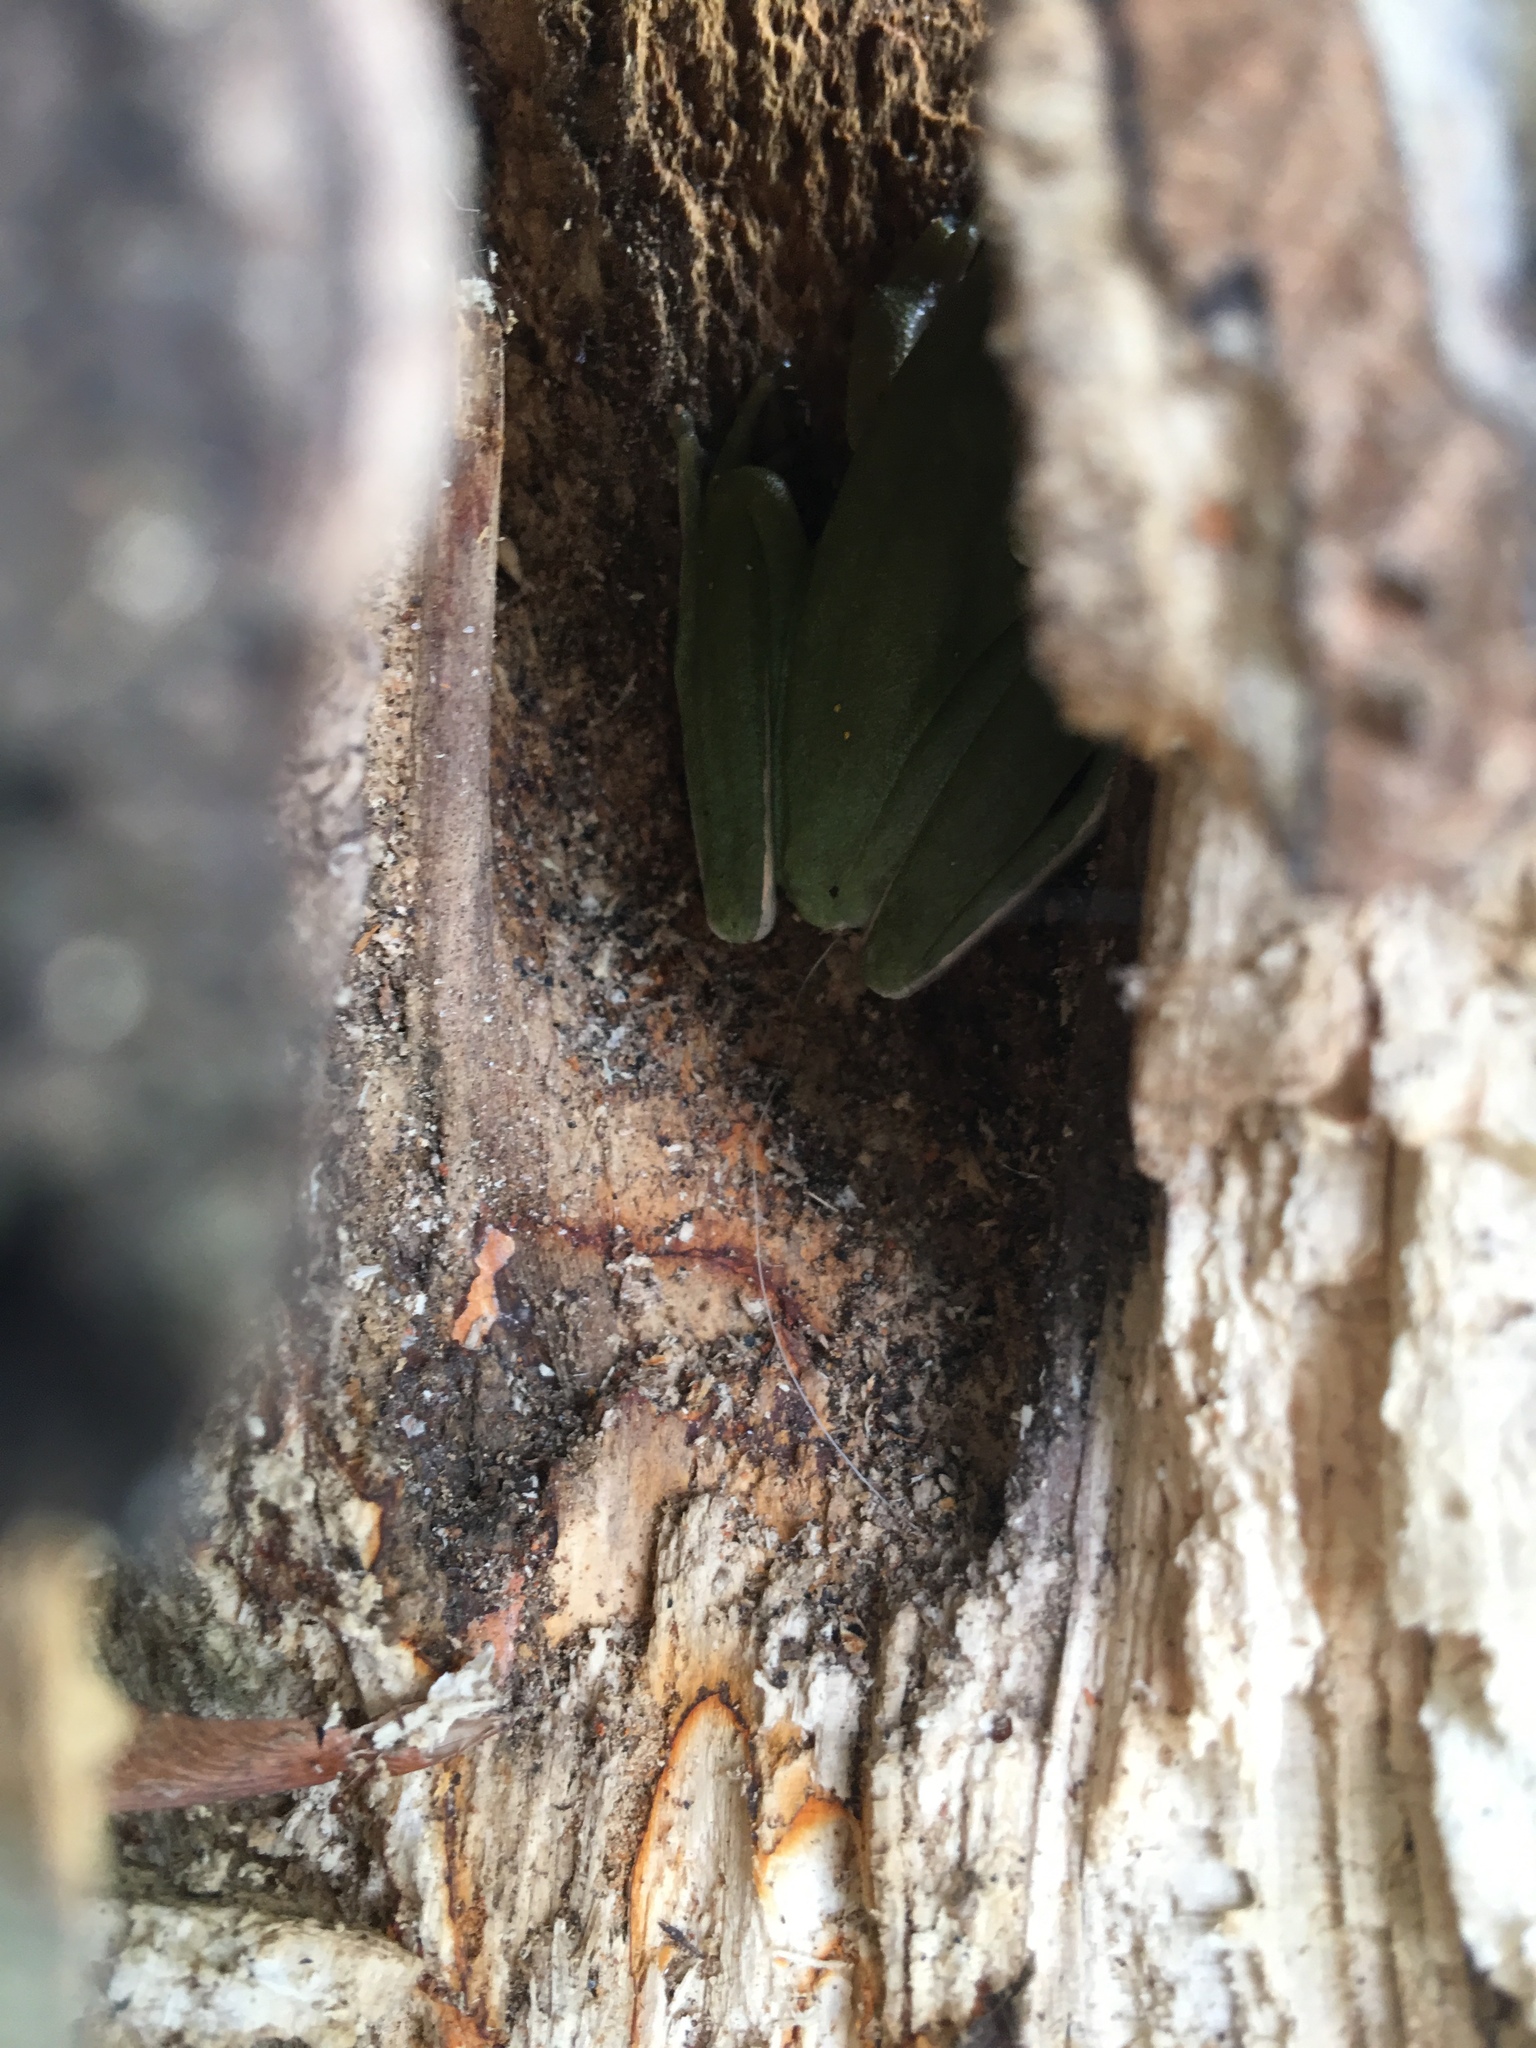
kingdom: Animalia
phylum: Chordata
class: Amphibia
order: Anura
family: Hylidae
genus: Dryophytes
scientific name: Dryophytes cinereus
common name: Green treefrog
